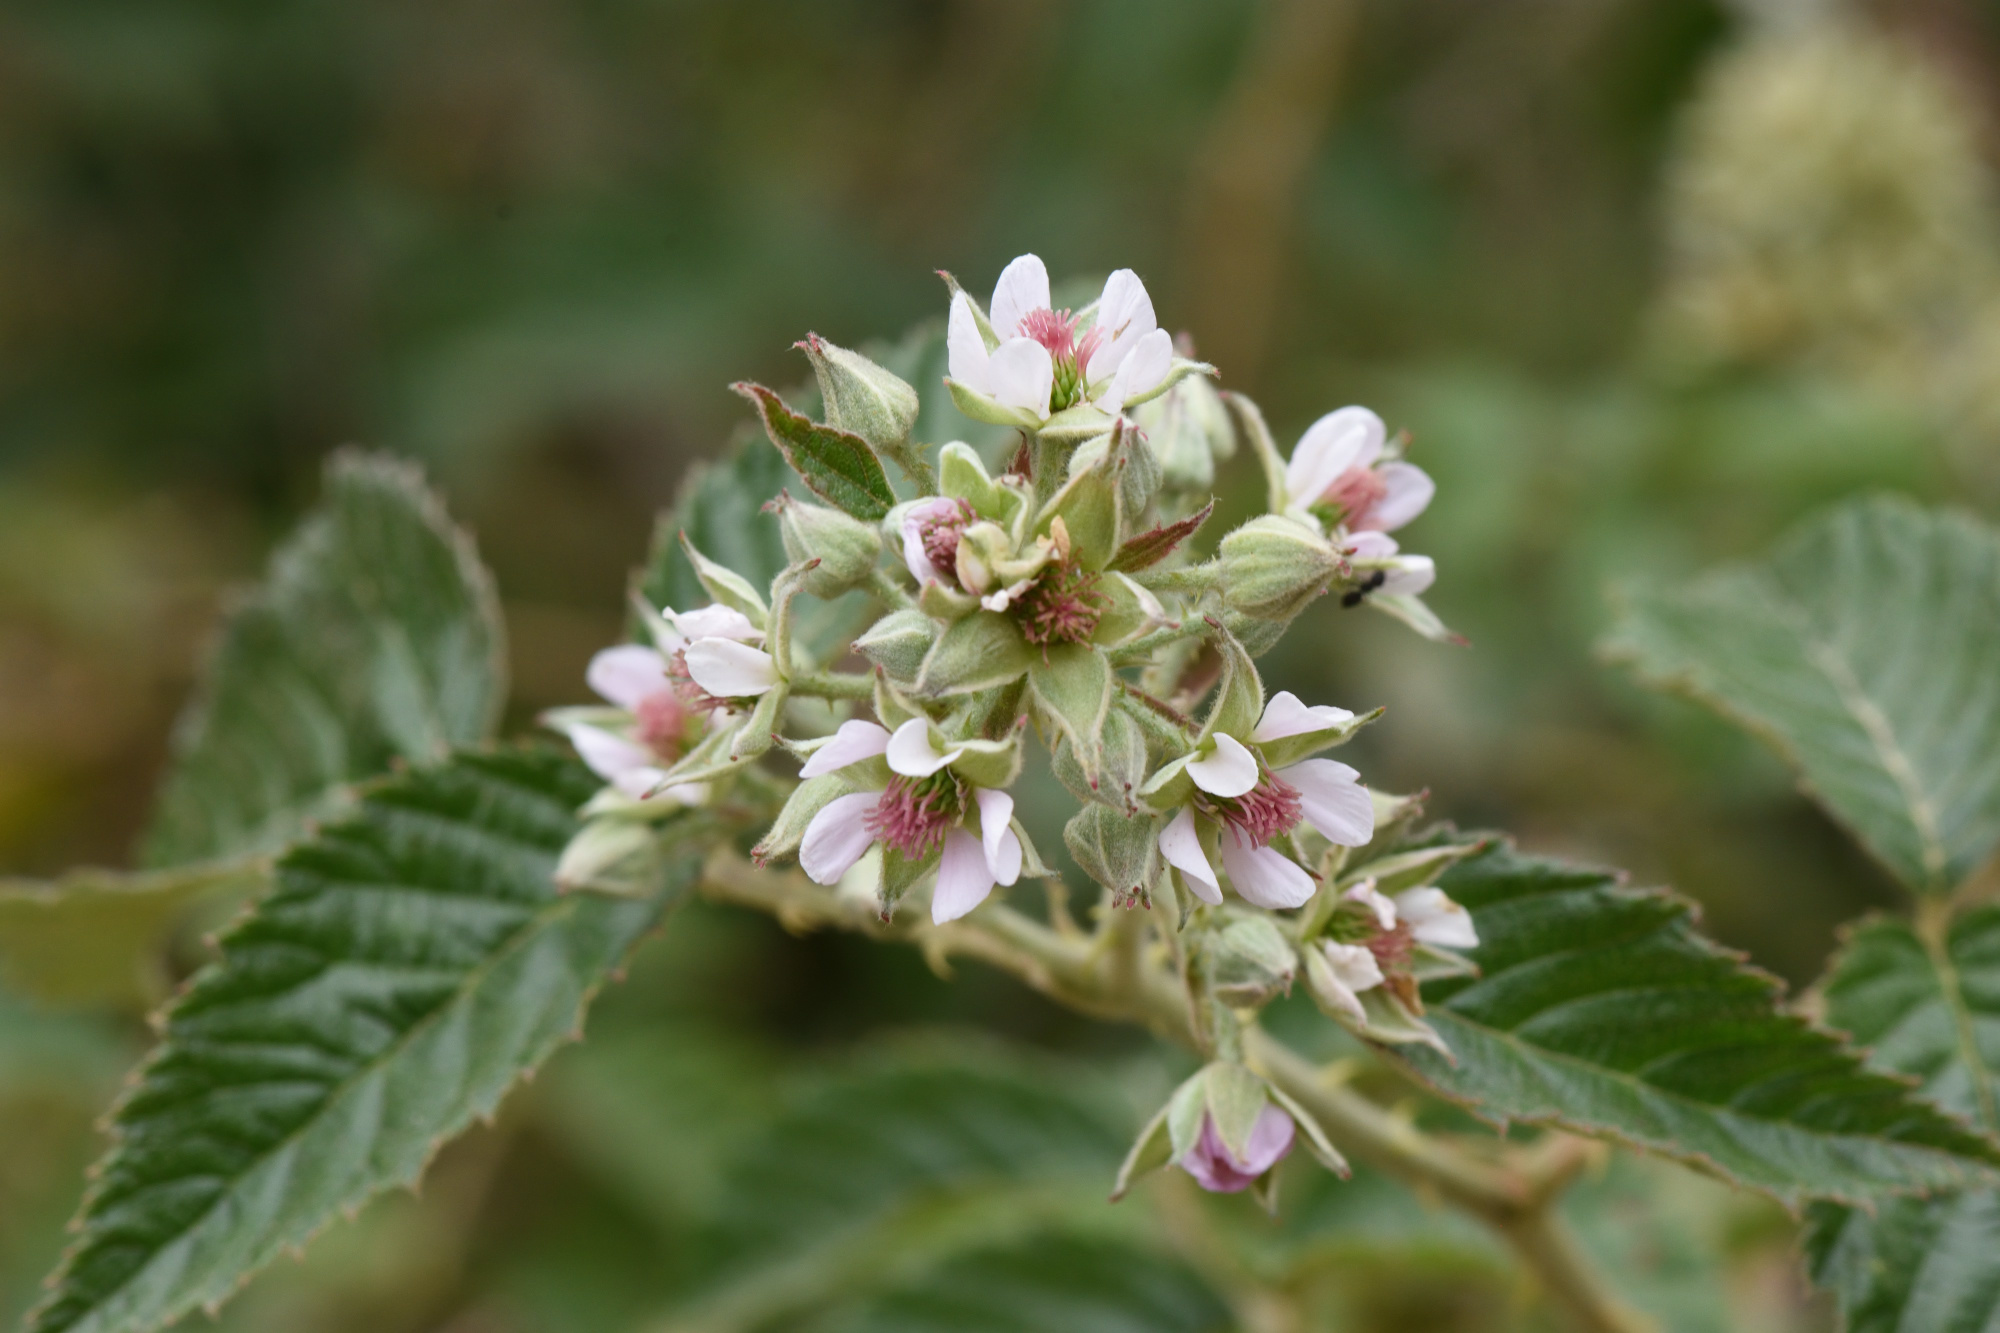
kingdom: Plantae
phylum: Tracheophyta
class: Magnoliopsida
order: Rosales
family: Rosaceae
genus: Rubus
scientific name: Rubus rigidus
